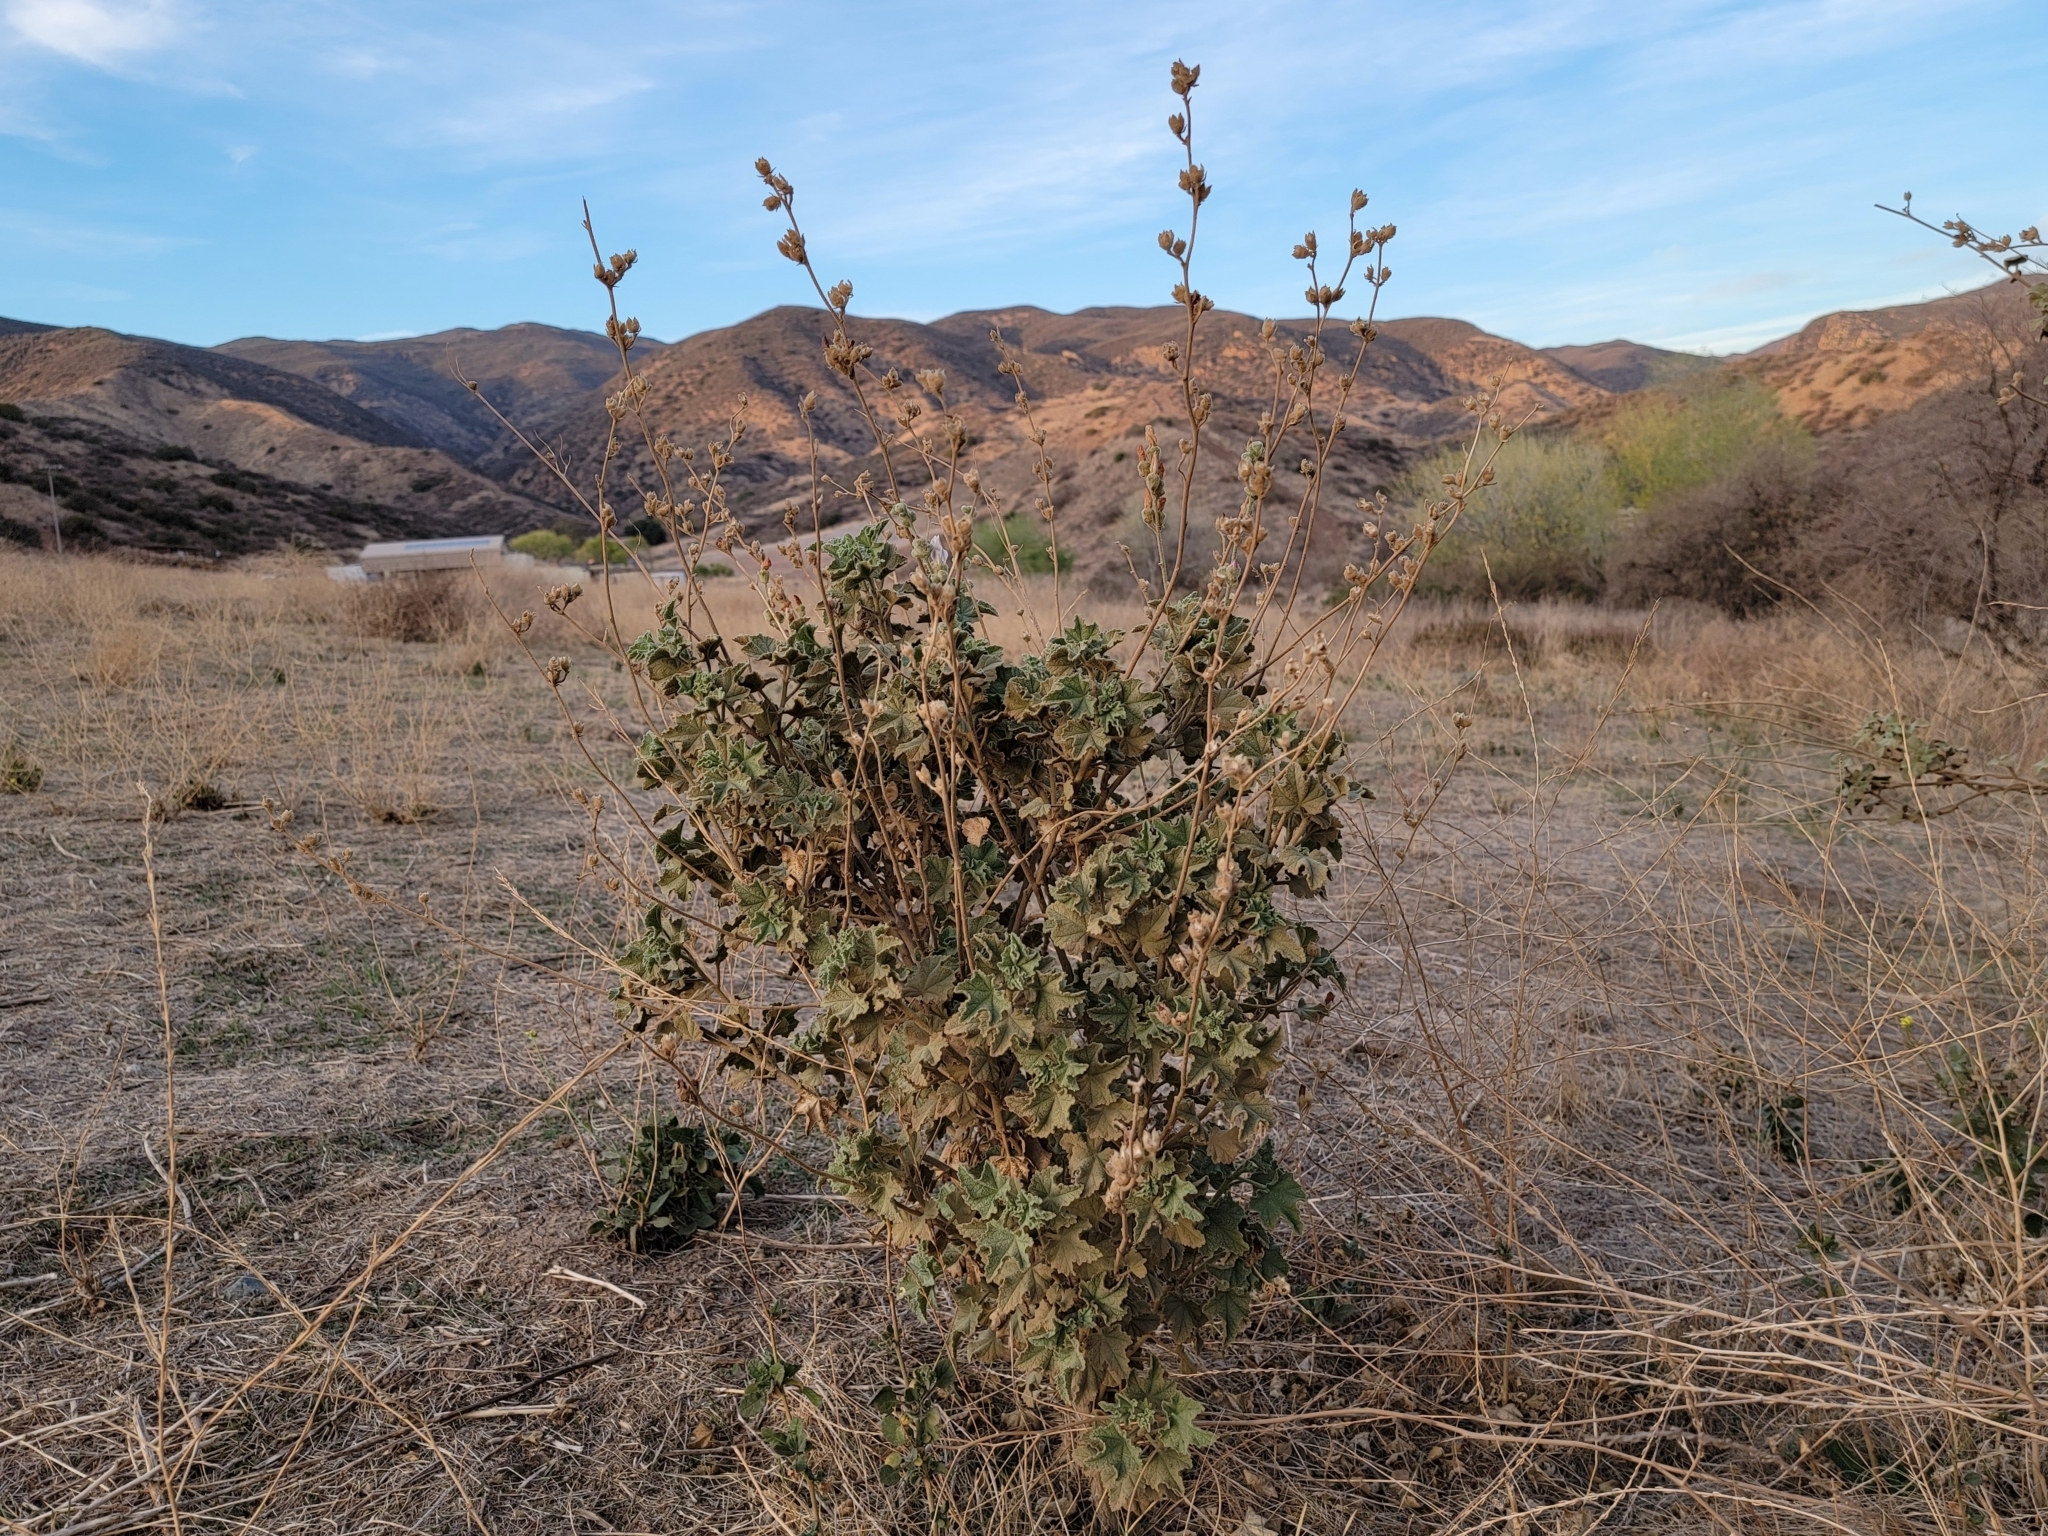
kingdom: Plantae
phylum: Tracheophyta
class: Magnoliopsida
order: Malvales
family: Malvaceae
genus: Malacothamnus
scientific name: Malacothamnus fremontii
